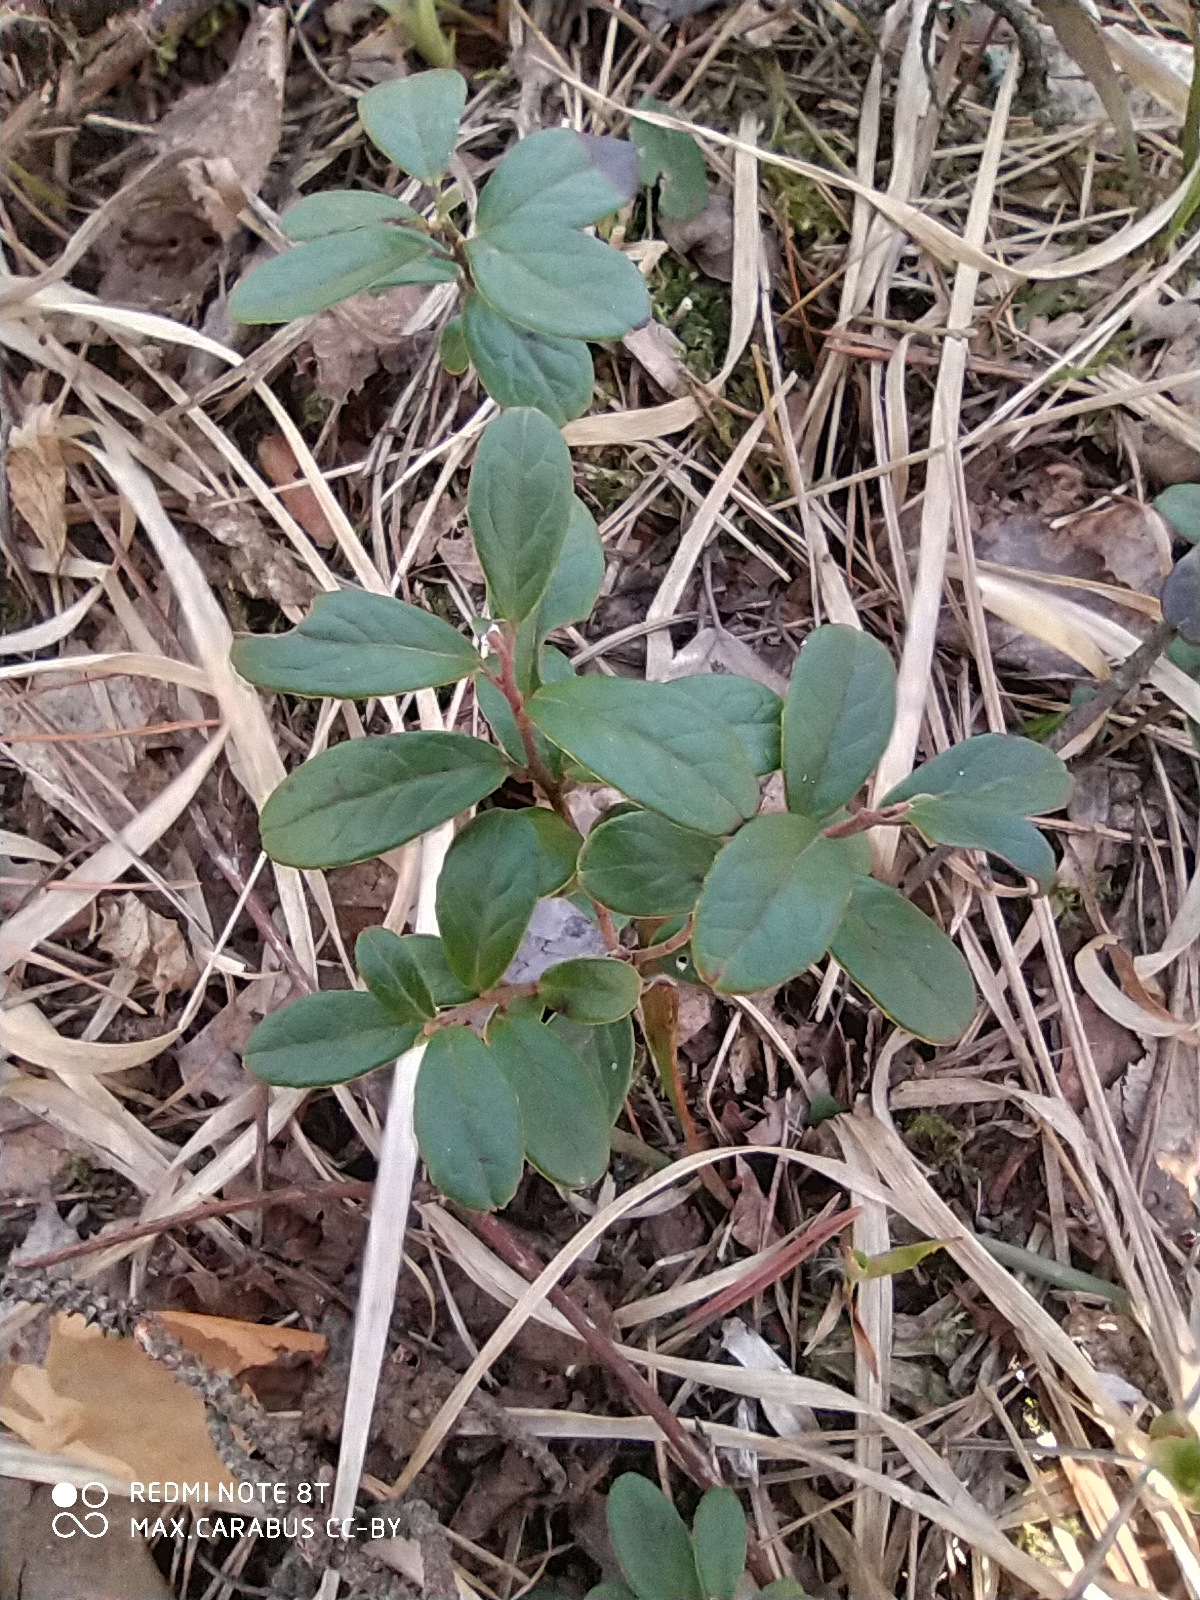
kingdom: Plantae
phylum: Tracheophyta
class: Magnoliopsida
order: Ericales
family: Ericaceae
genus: Vaccinium
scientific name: Vaccinium vitis-idaea
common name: Cowberry
